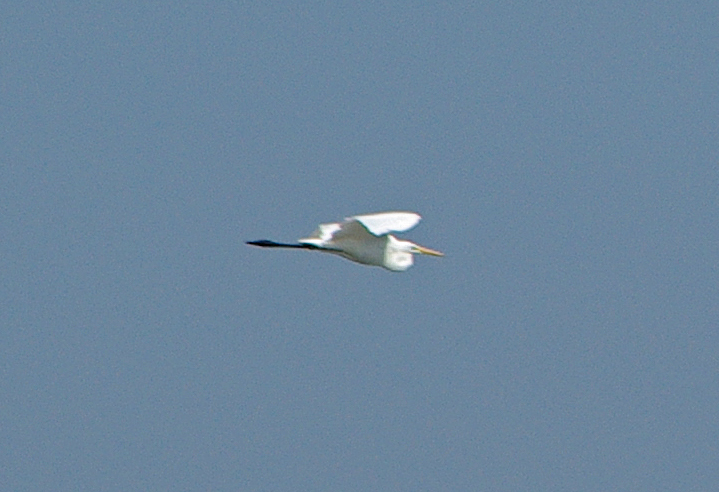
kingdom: Animalia
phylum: Chordata
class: Aves
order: Pelecaniformes
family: Ardeidae
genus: Ardea
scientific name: Ardea alba
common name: Great egret
